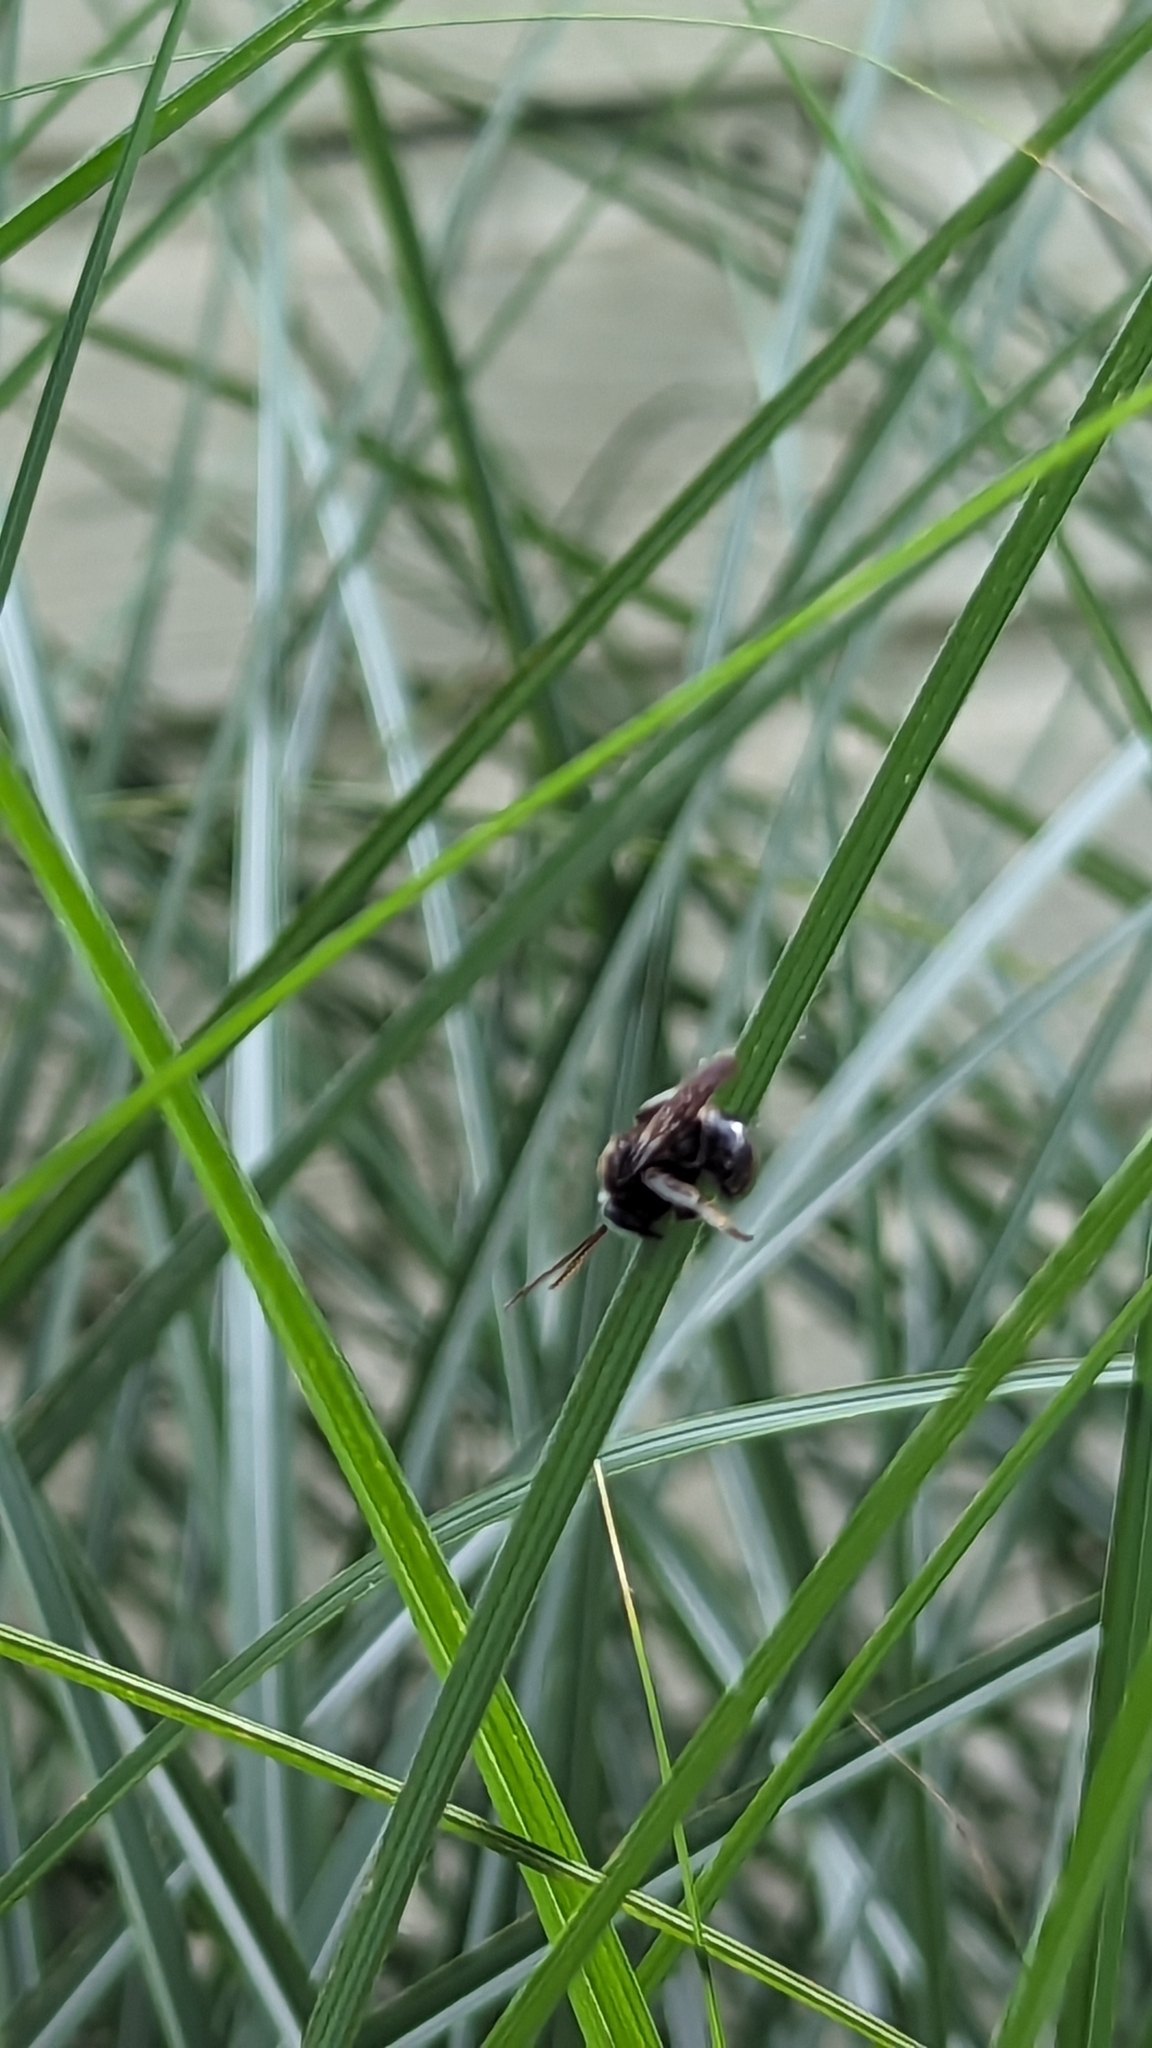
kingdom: Animalia
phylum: Arthropoda
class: Insecta
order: Hymenoptera
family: Apidae
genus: Melissodes
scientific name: Melissodes bimaculatus
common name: Two-spotted long-horned bee
